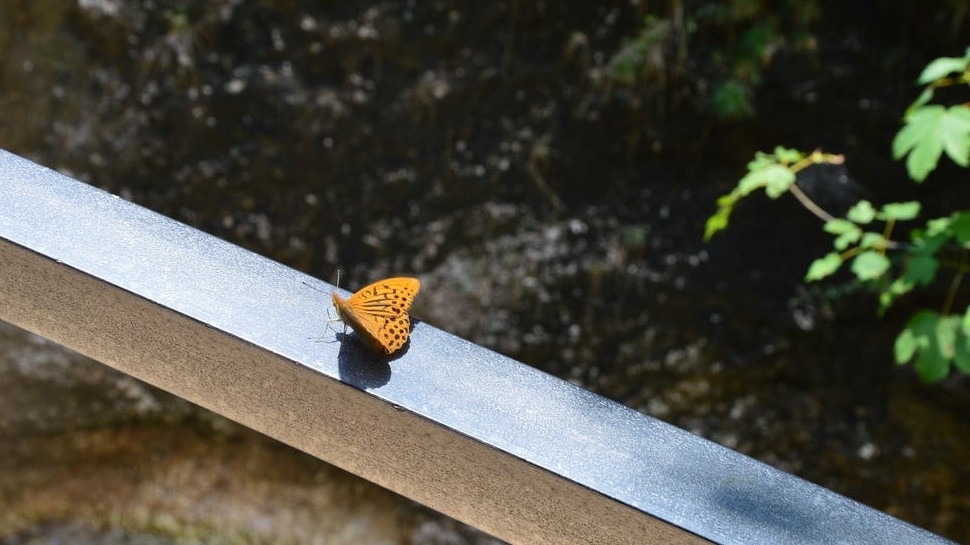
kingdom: Animalia
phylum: Arthropoda
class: Insecta
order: Lepidoptera
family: Nymphalidae
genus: Argynnis
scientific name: Argynnis paphia
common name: Silver-washed fritillary
